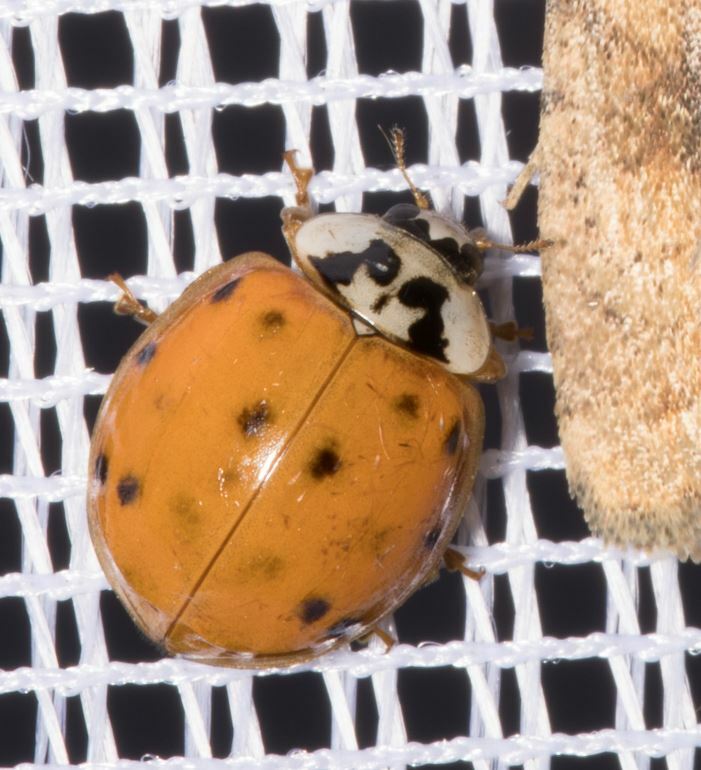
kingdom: Animalia
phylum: Arthropoda
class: Insecta
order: Coleoptera
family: Coccinellidae
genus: Harmonia
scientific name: Harmonia axyridis
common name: Harlequin ladybird
